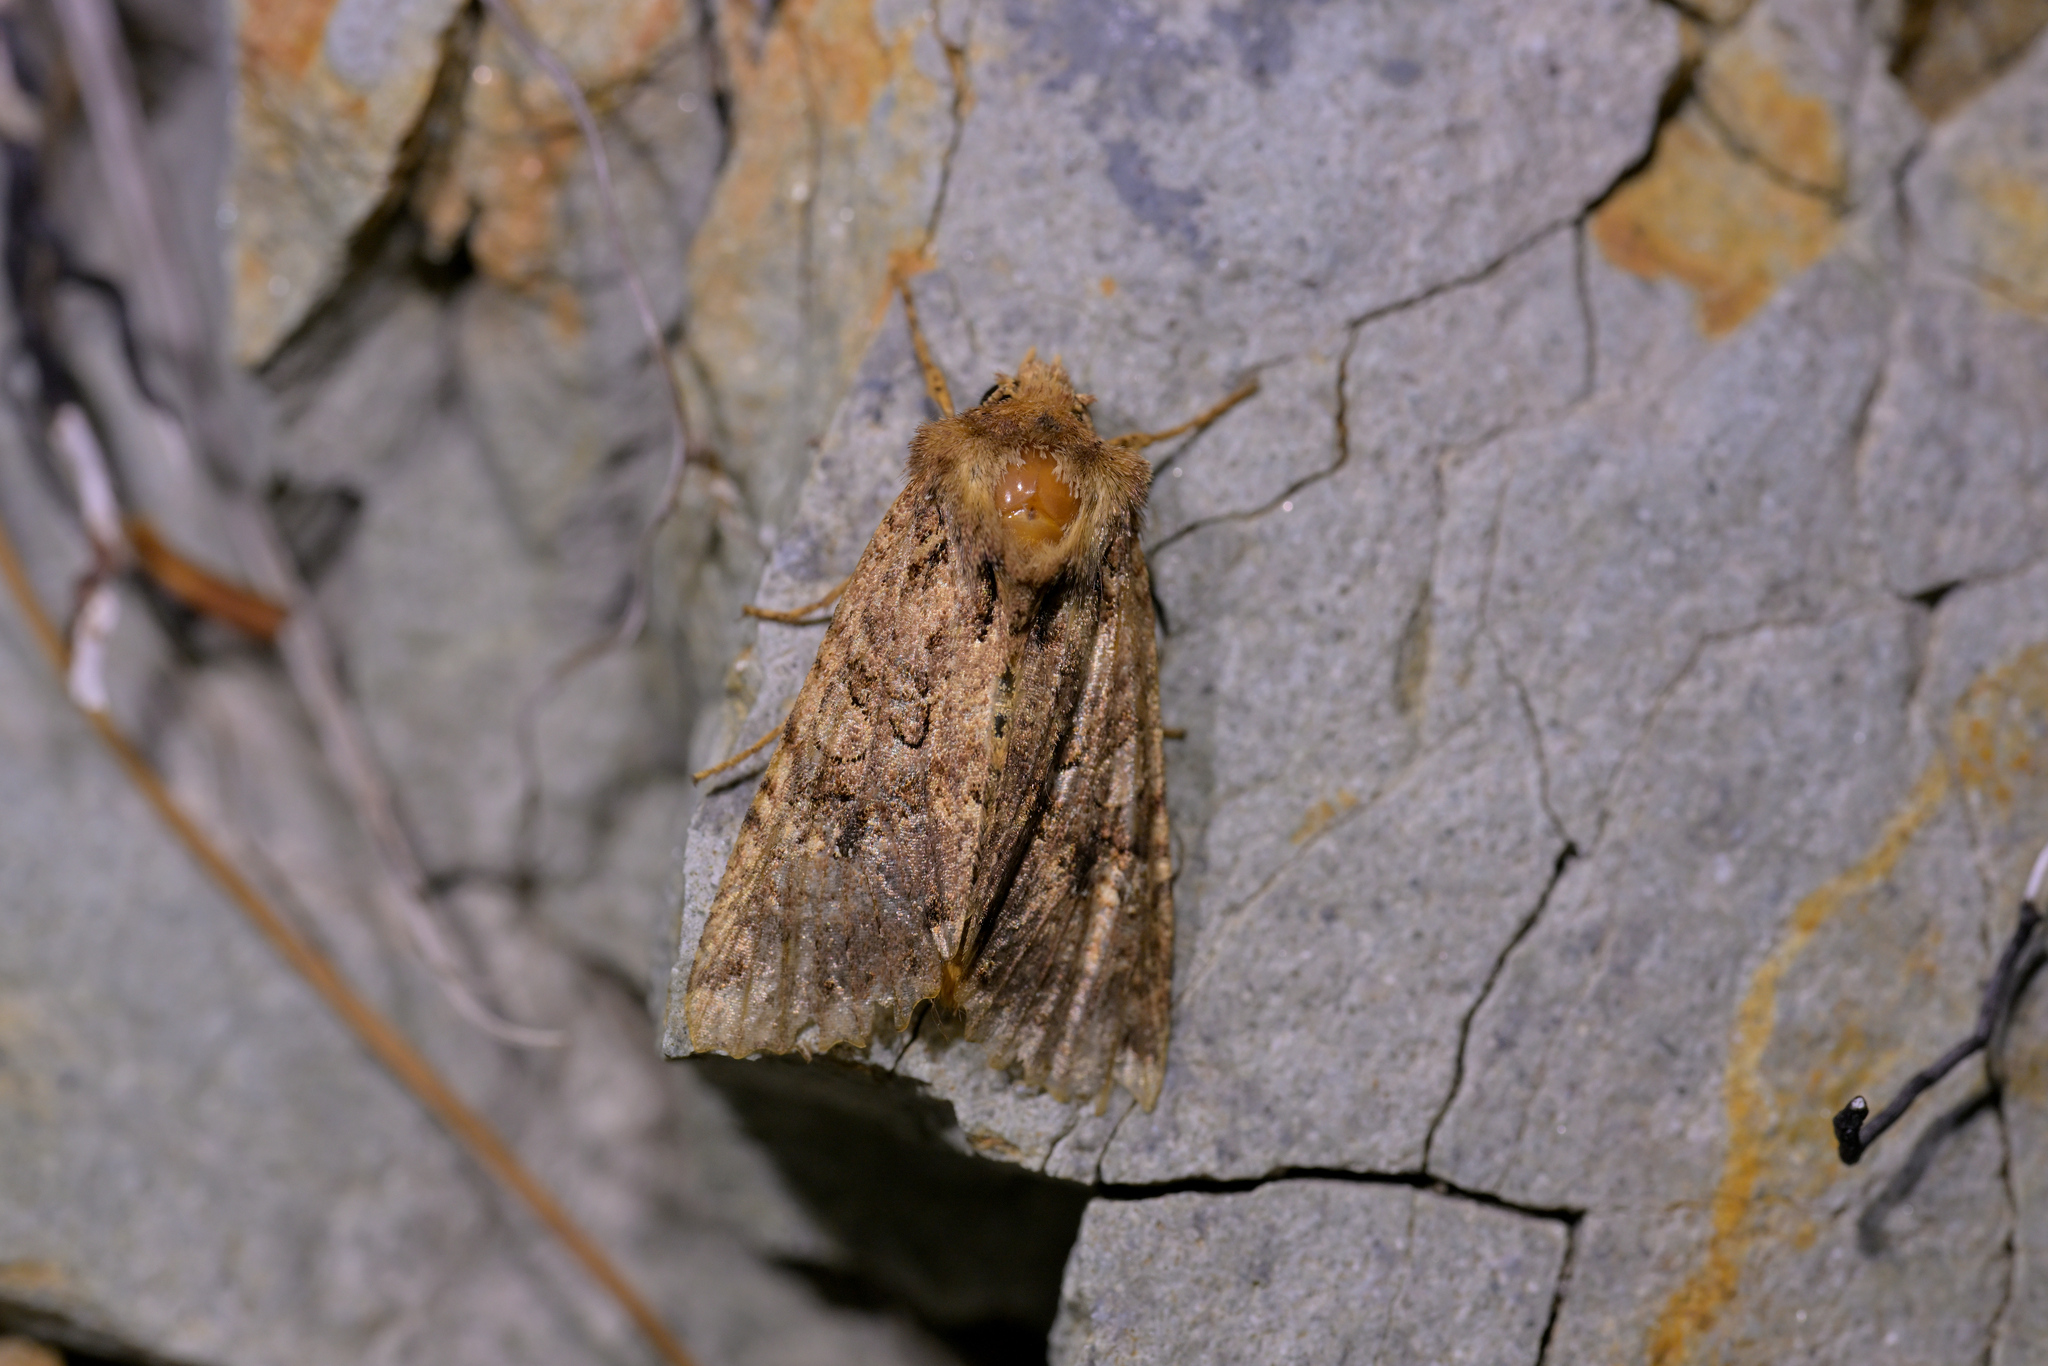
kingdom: Animalia
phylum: Arthropoda
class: Insecta
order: Lepidoptera
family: Noctuidae
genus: Meterana
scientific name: Meterana
